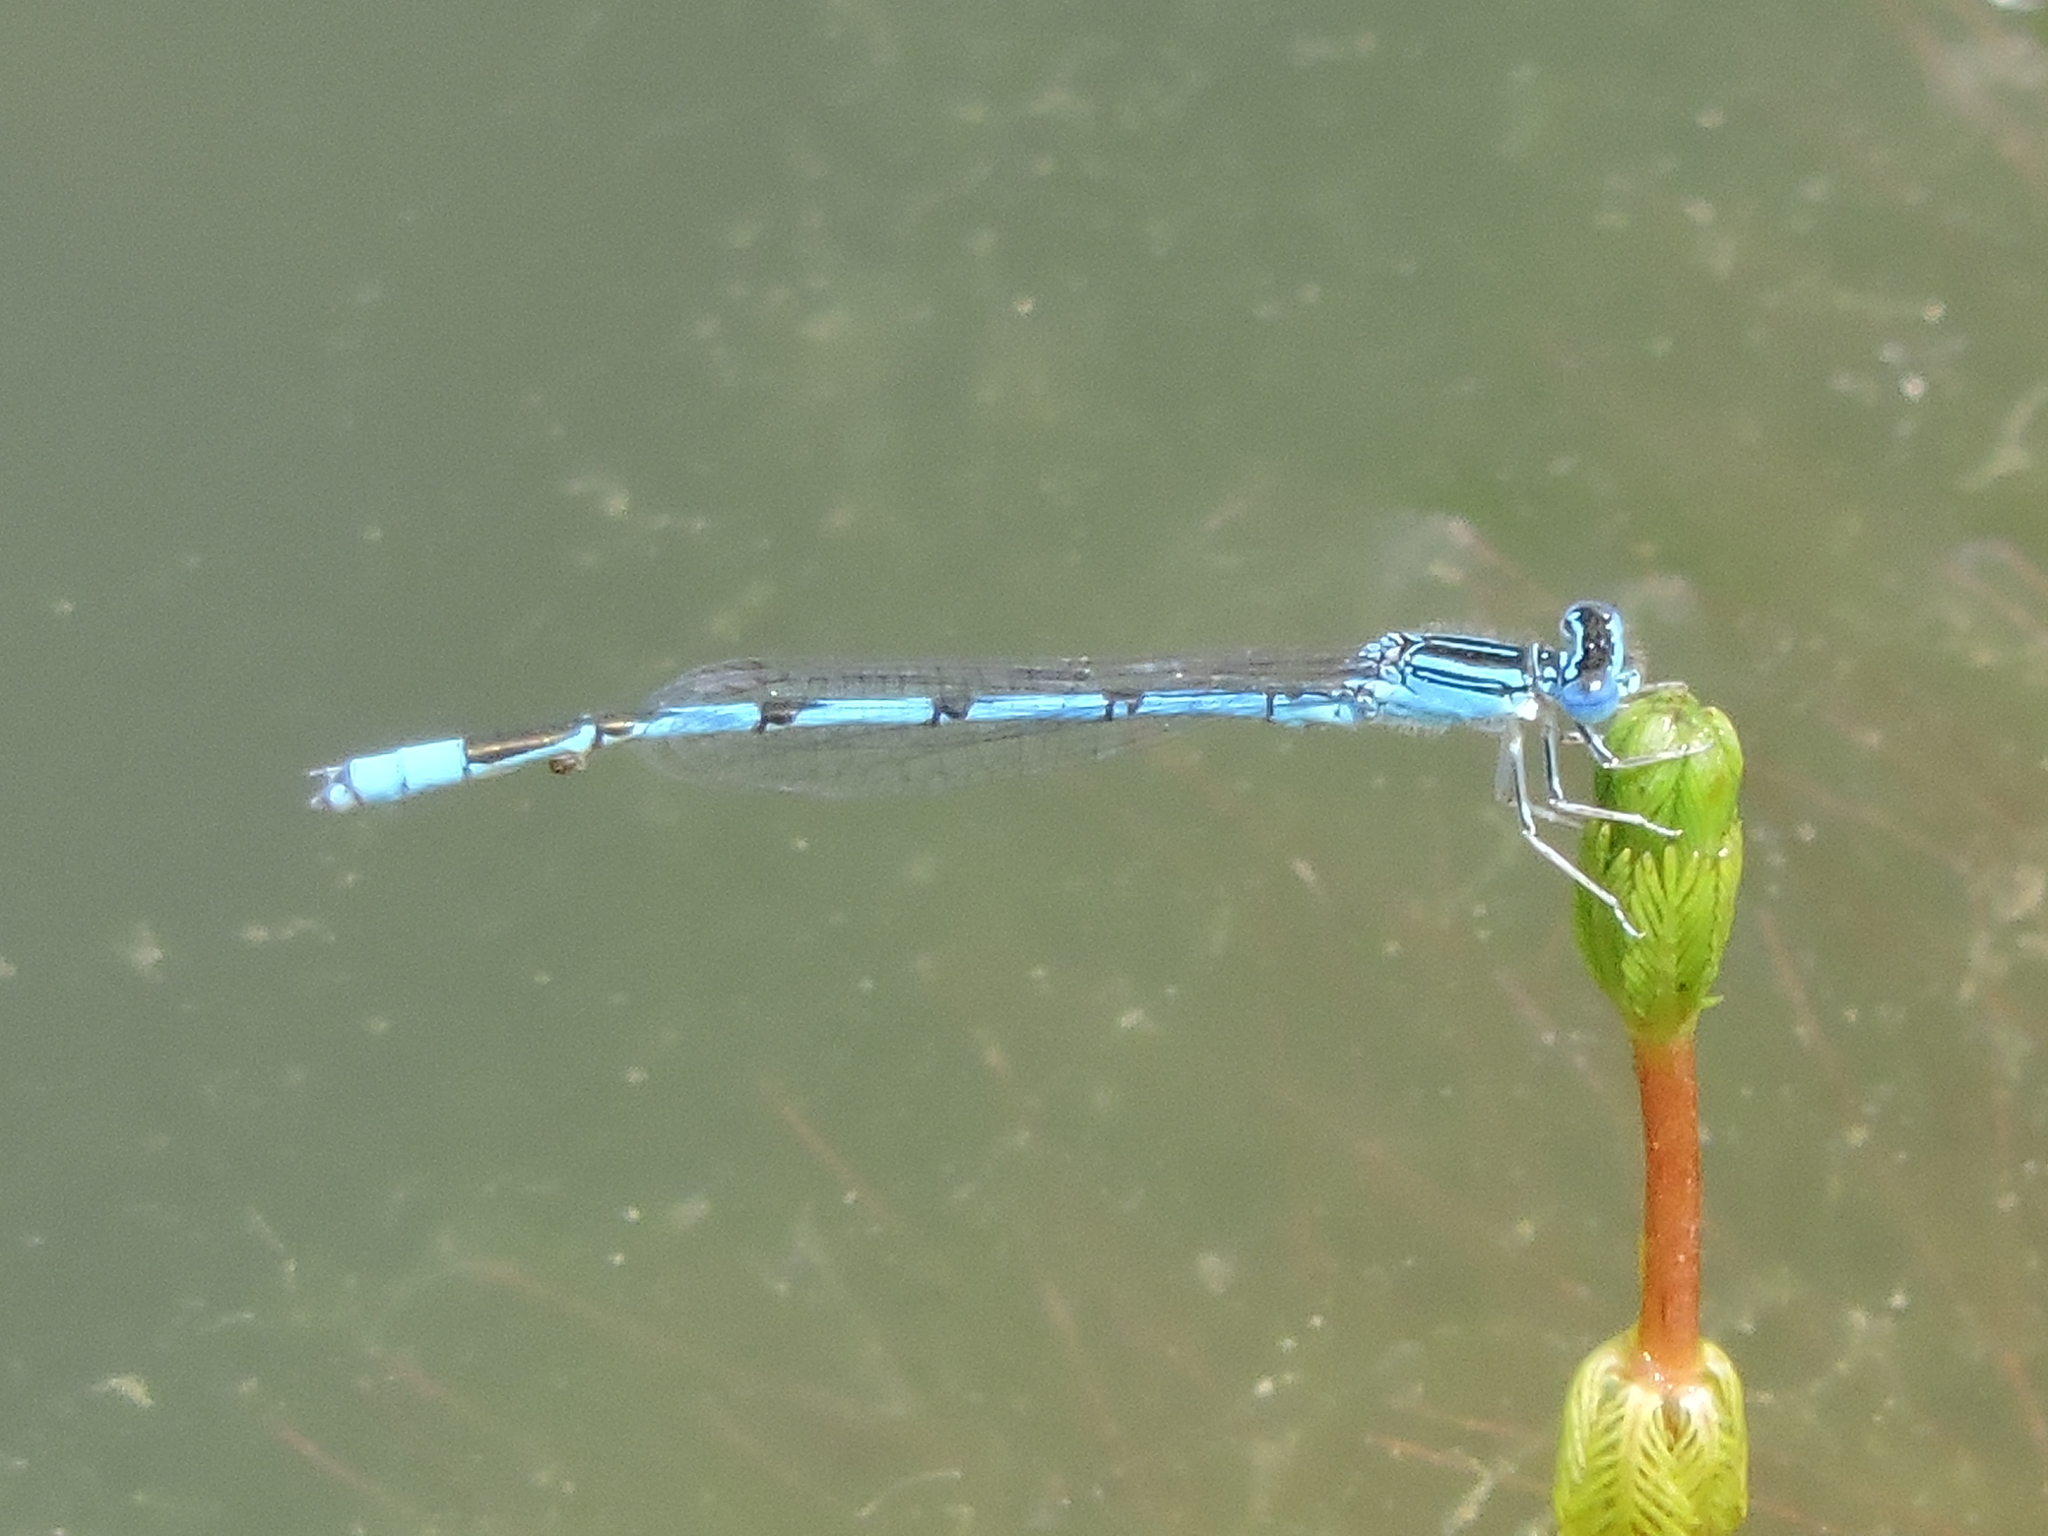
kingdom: Animalia
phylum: Arthropoda
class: Insecta
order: Odonata
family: Coenagrionidae
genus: Enallagma
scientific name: Enallagma basidens
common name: Double-striped bluet
